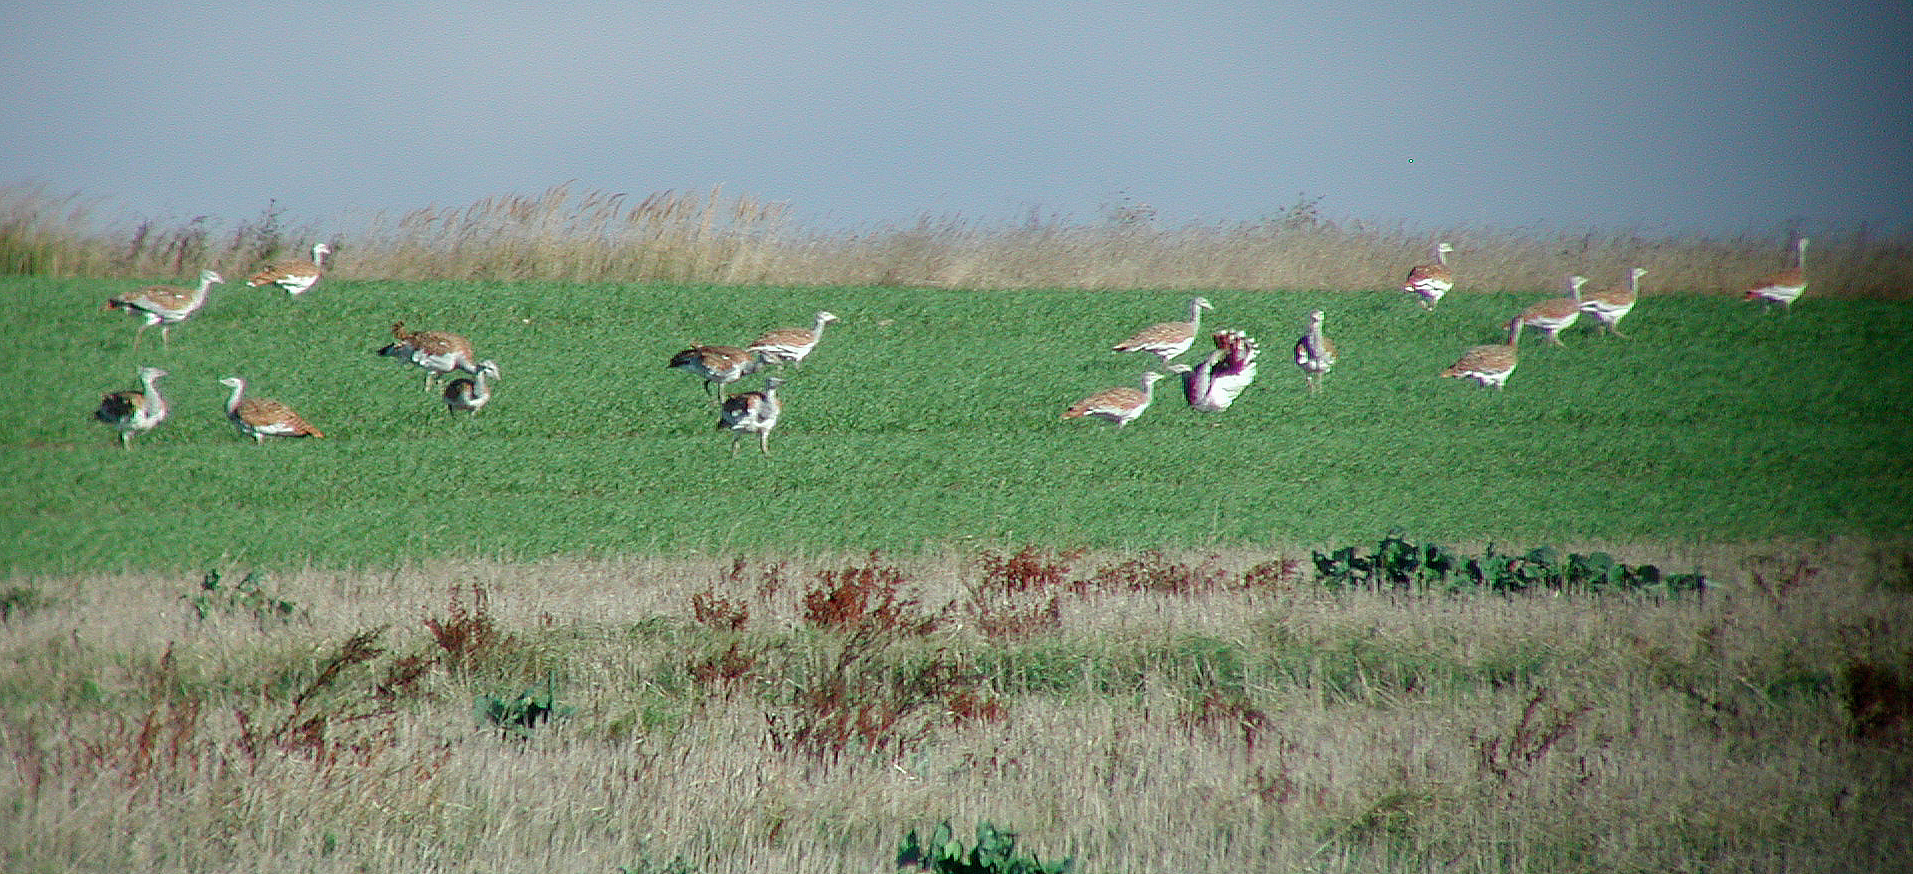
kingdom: Animalia
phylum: Chordata
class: Aves
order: Otidiformes
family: Otididae
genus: Otis
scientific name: Otis tarda
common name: Great bustard
